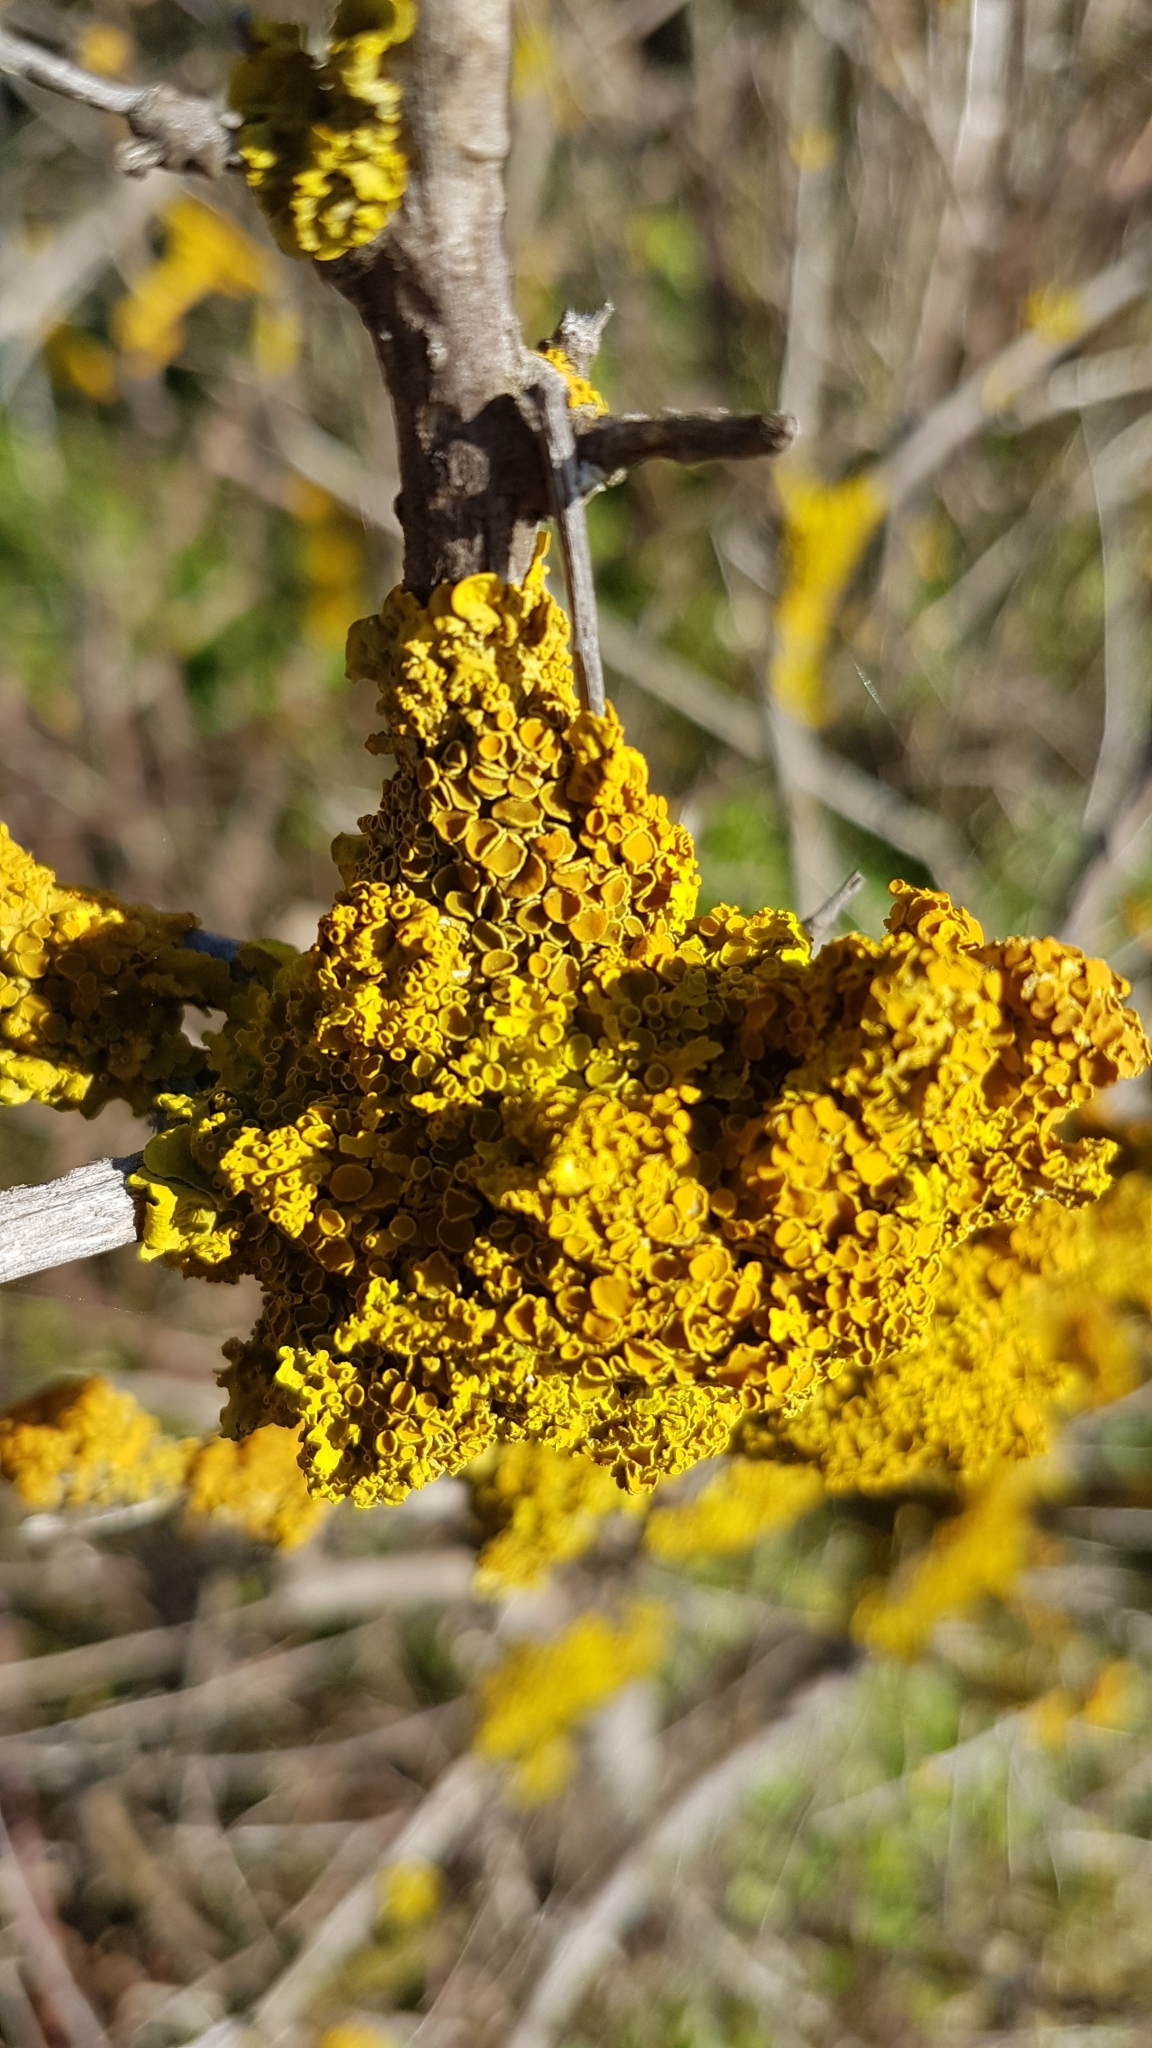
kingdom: Fungi
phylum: Ascomycota
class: Lecanoromycetes
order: Teloschistales
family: Teloschistaceae
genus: Xanthoria
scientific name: Xanthoria parietina
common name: Common orange lichen
